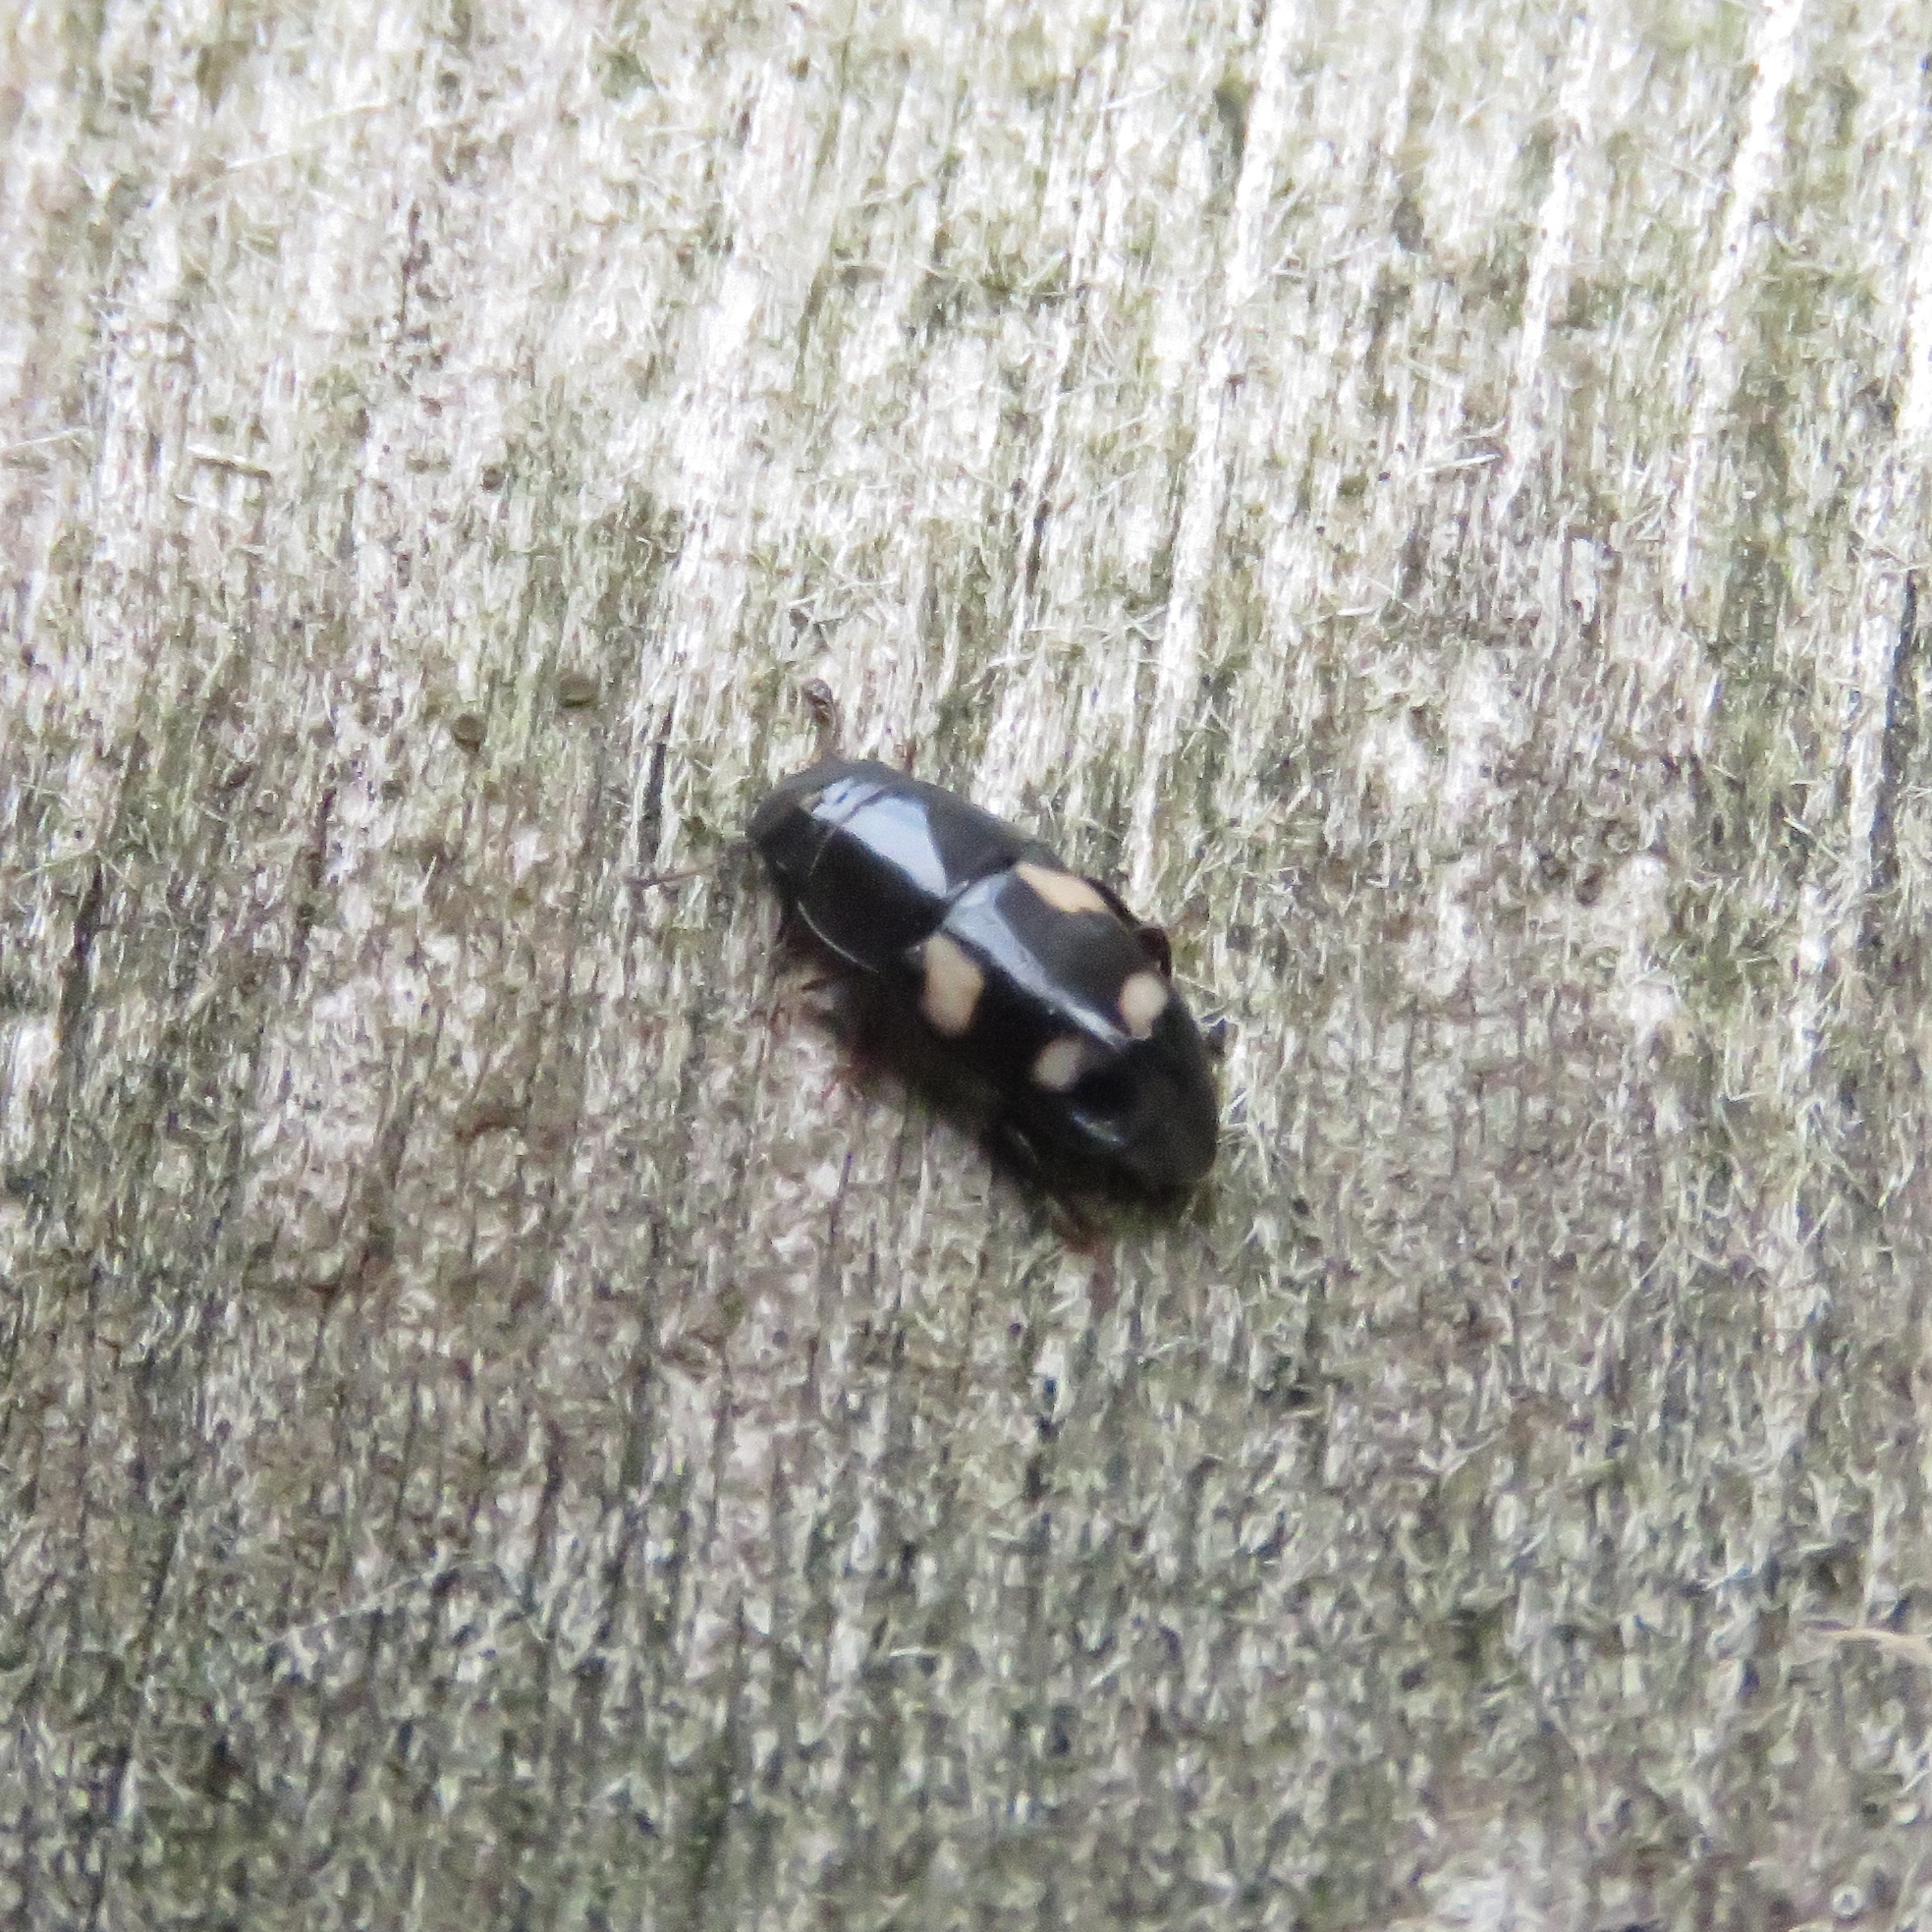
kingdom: Animalia
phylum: Arthropoda
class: Insecta
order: Coleoptera
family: Nitidulidae
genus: Glischrochilus
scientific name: Glischrochilus quadrisignatus
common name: Picnic beetle
